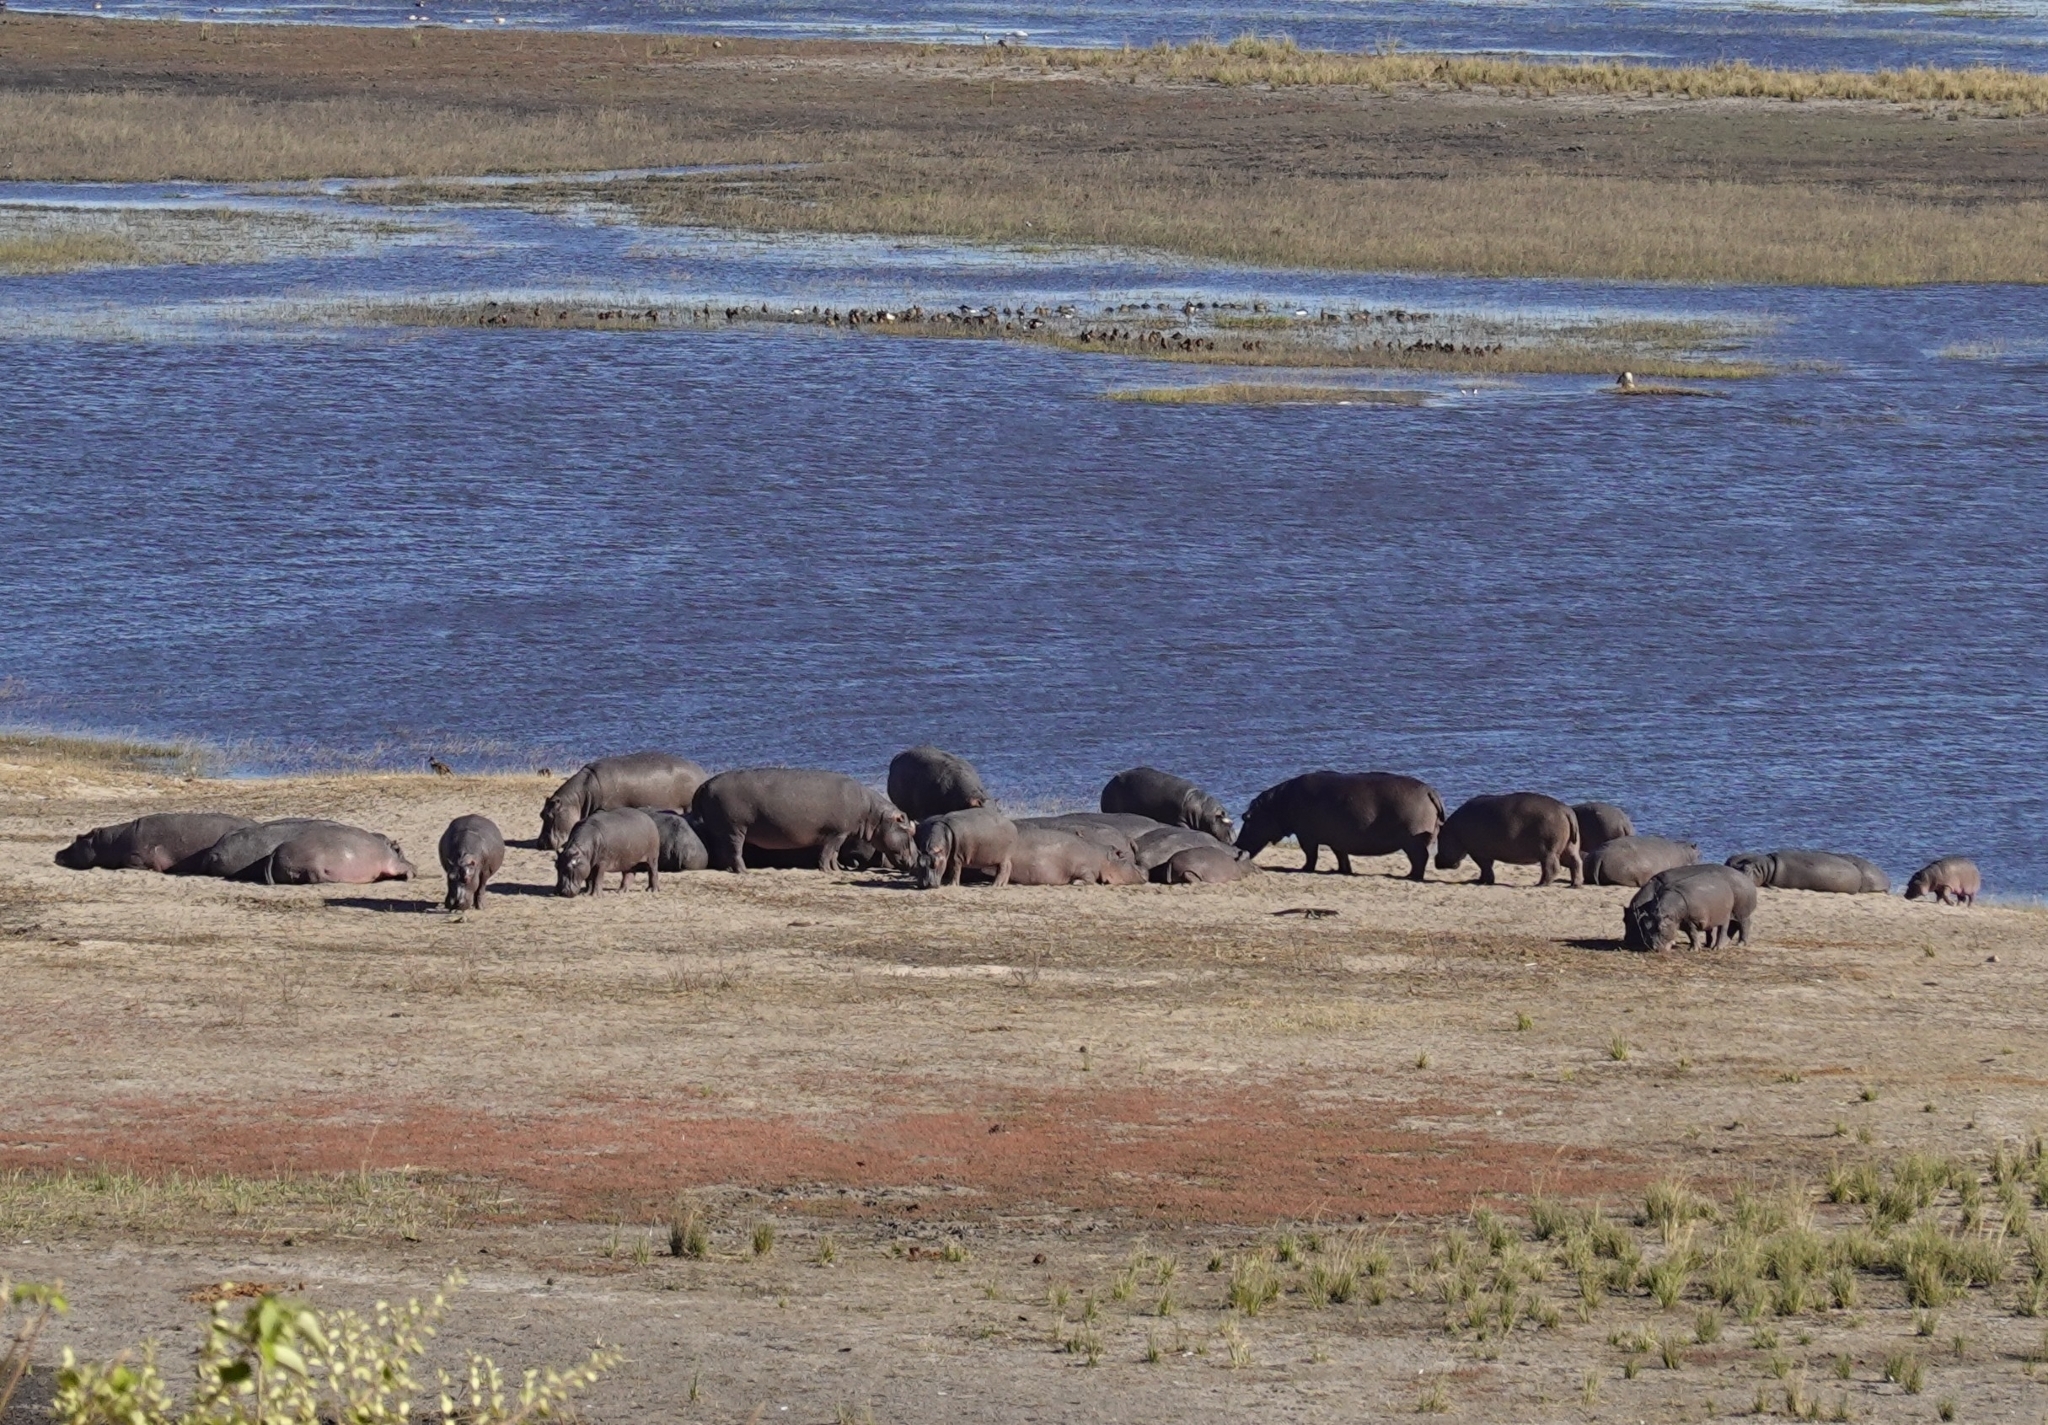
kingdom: Animalia
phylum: Chordata
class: Mammalia
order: Artiodactyla
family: Hippopotamidae
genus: Hippopotamus
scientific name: Hippopotamus amphibius
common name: Common hippopotamus
